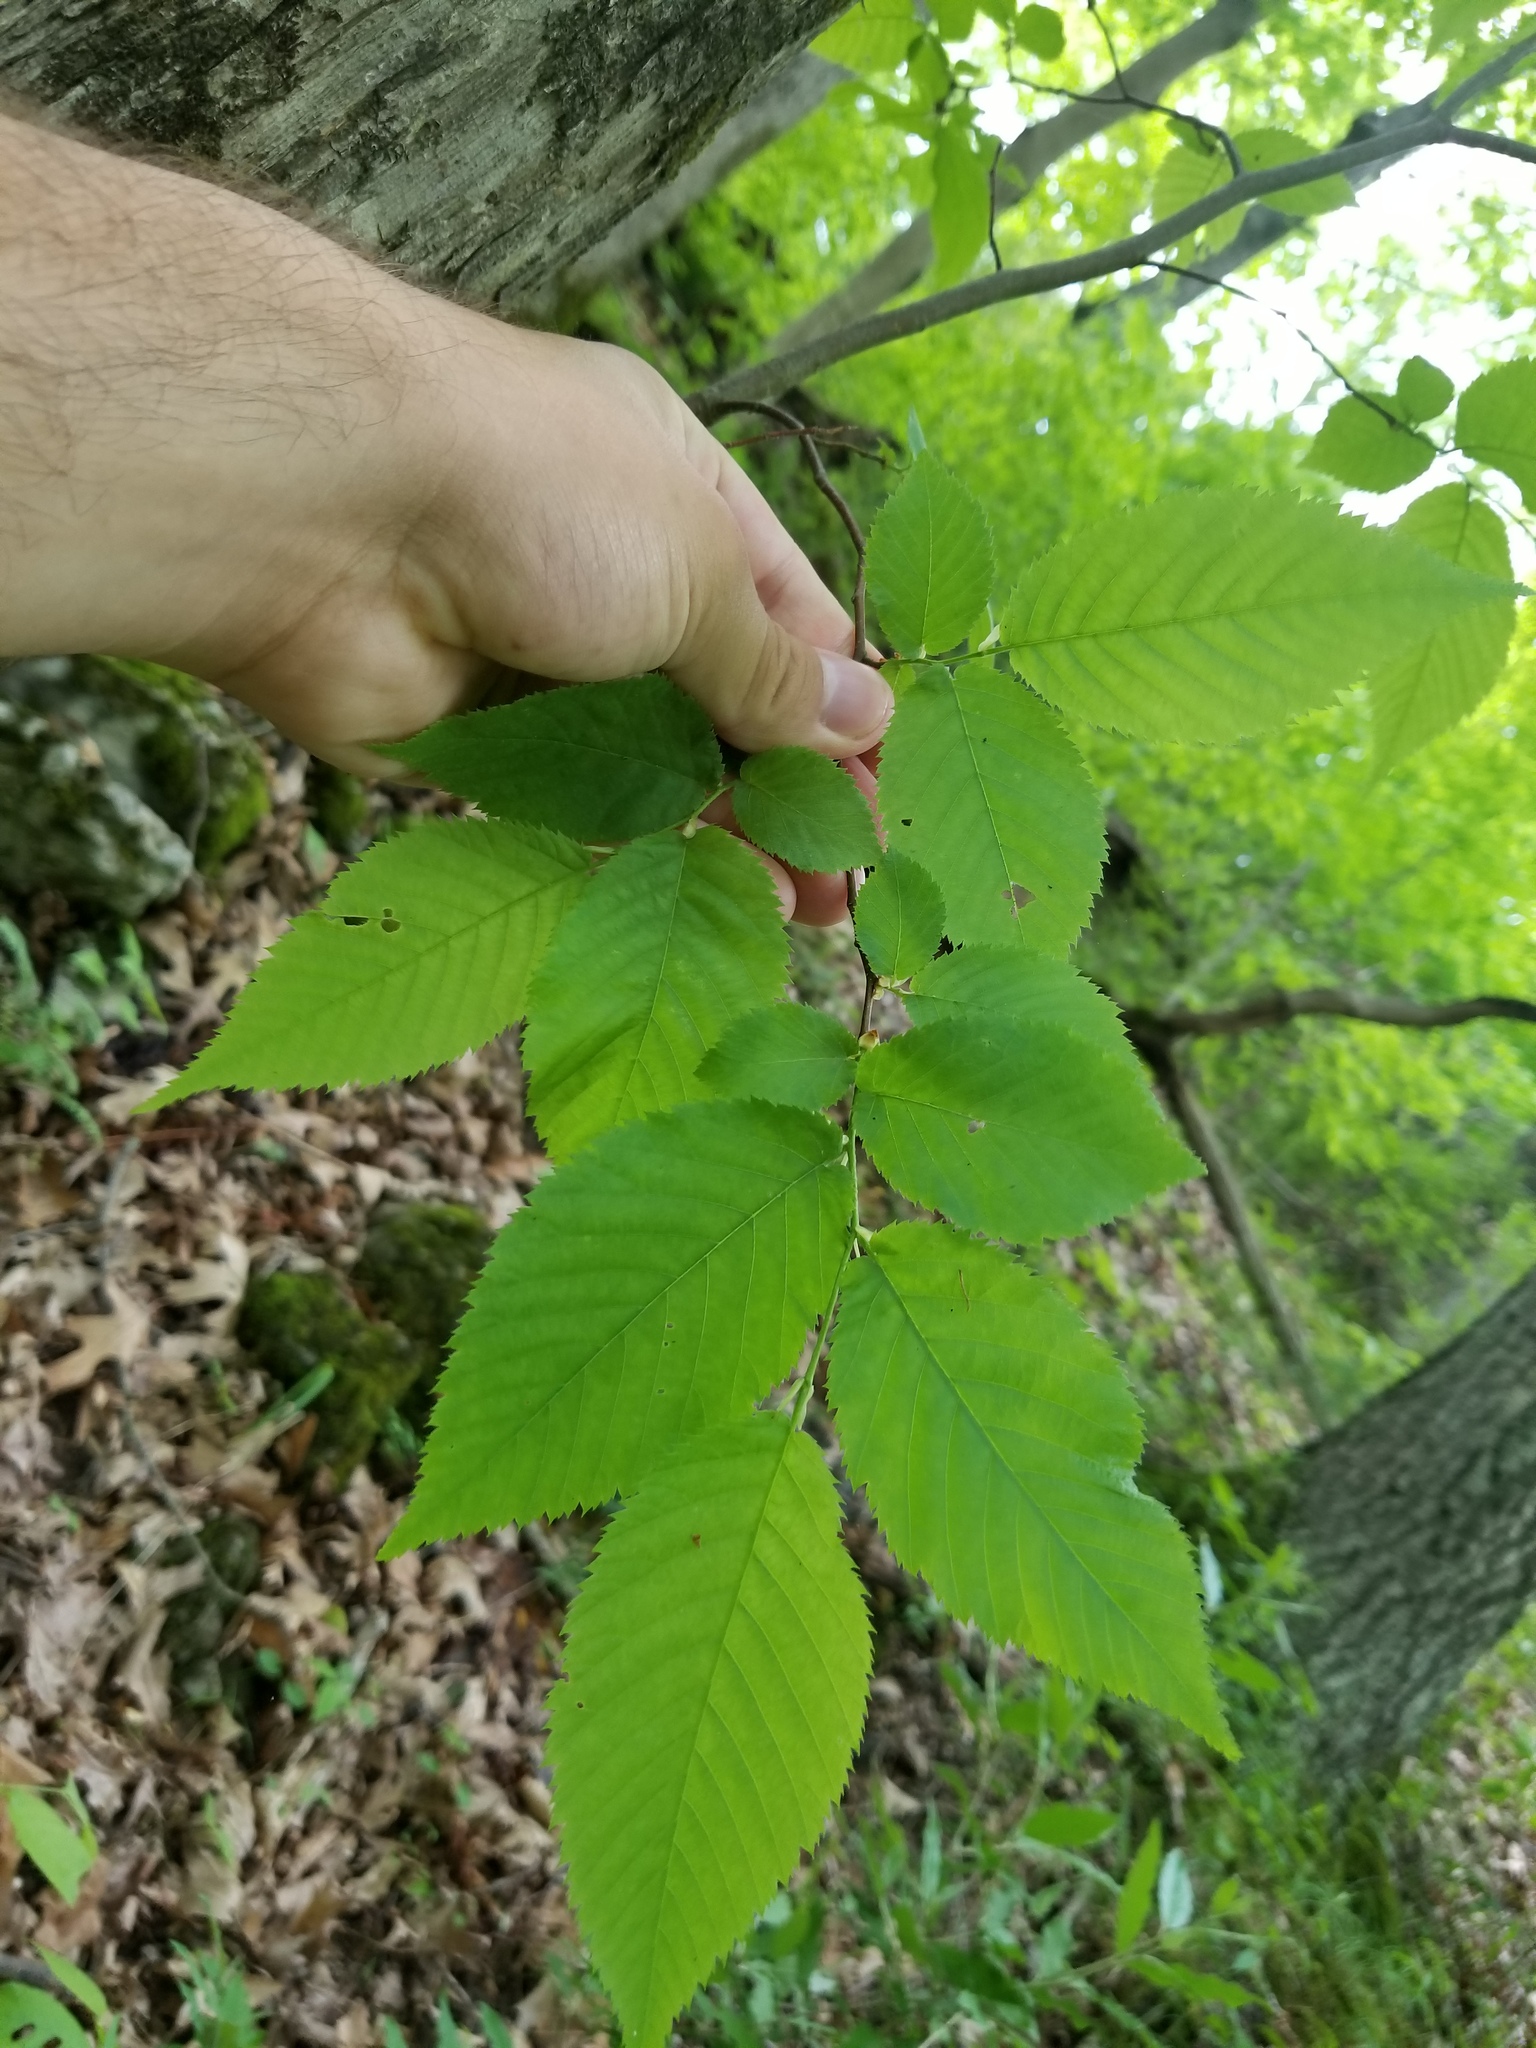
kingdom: Plantae
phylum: Tracheophyta
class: Magnoliopsida
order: Fagales
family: Betulaceae
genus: Ostrya
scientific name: Ostrya virginiana
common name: Ironwood
